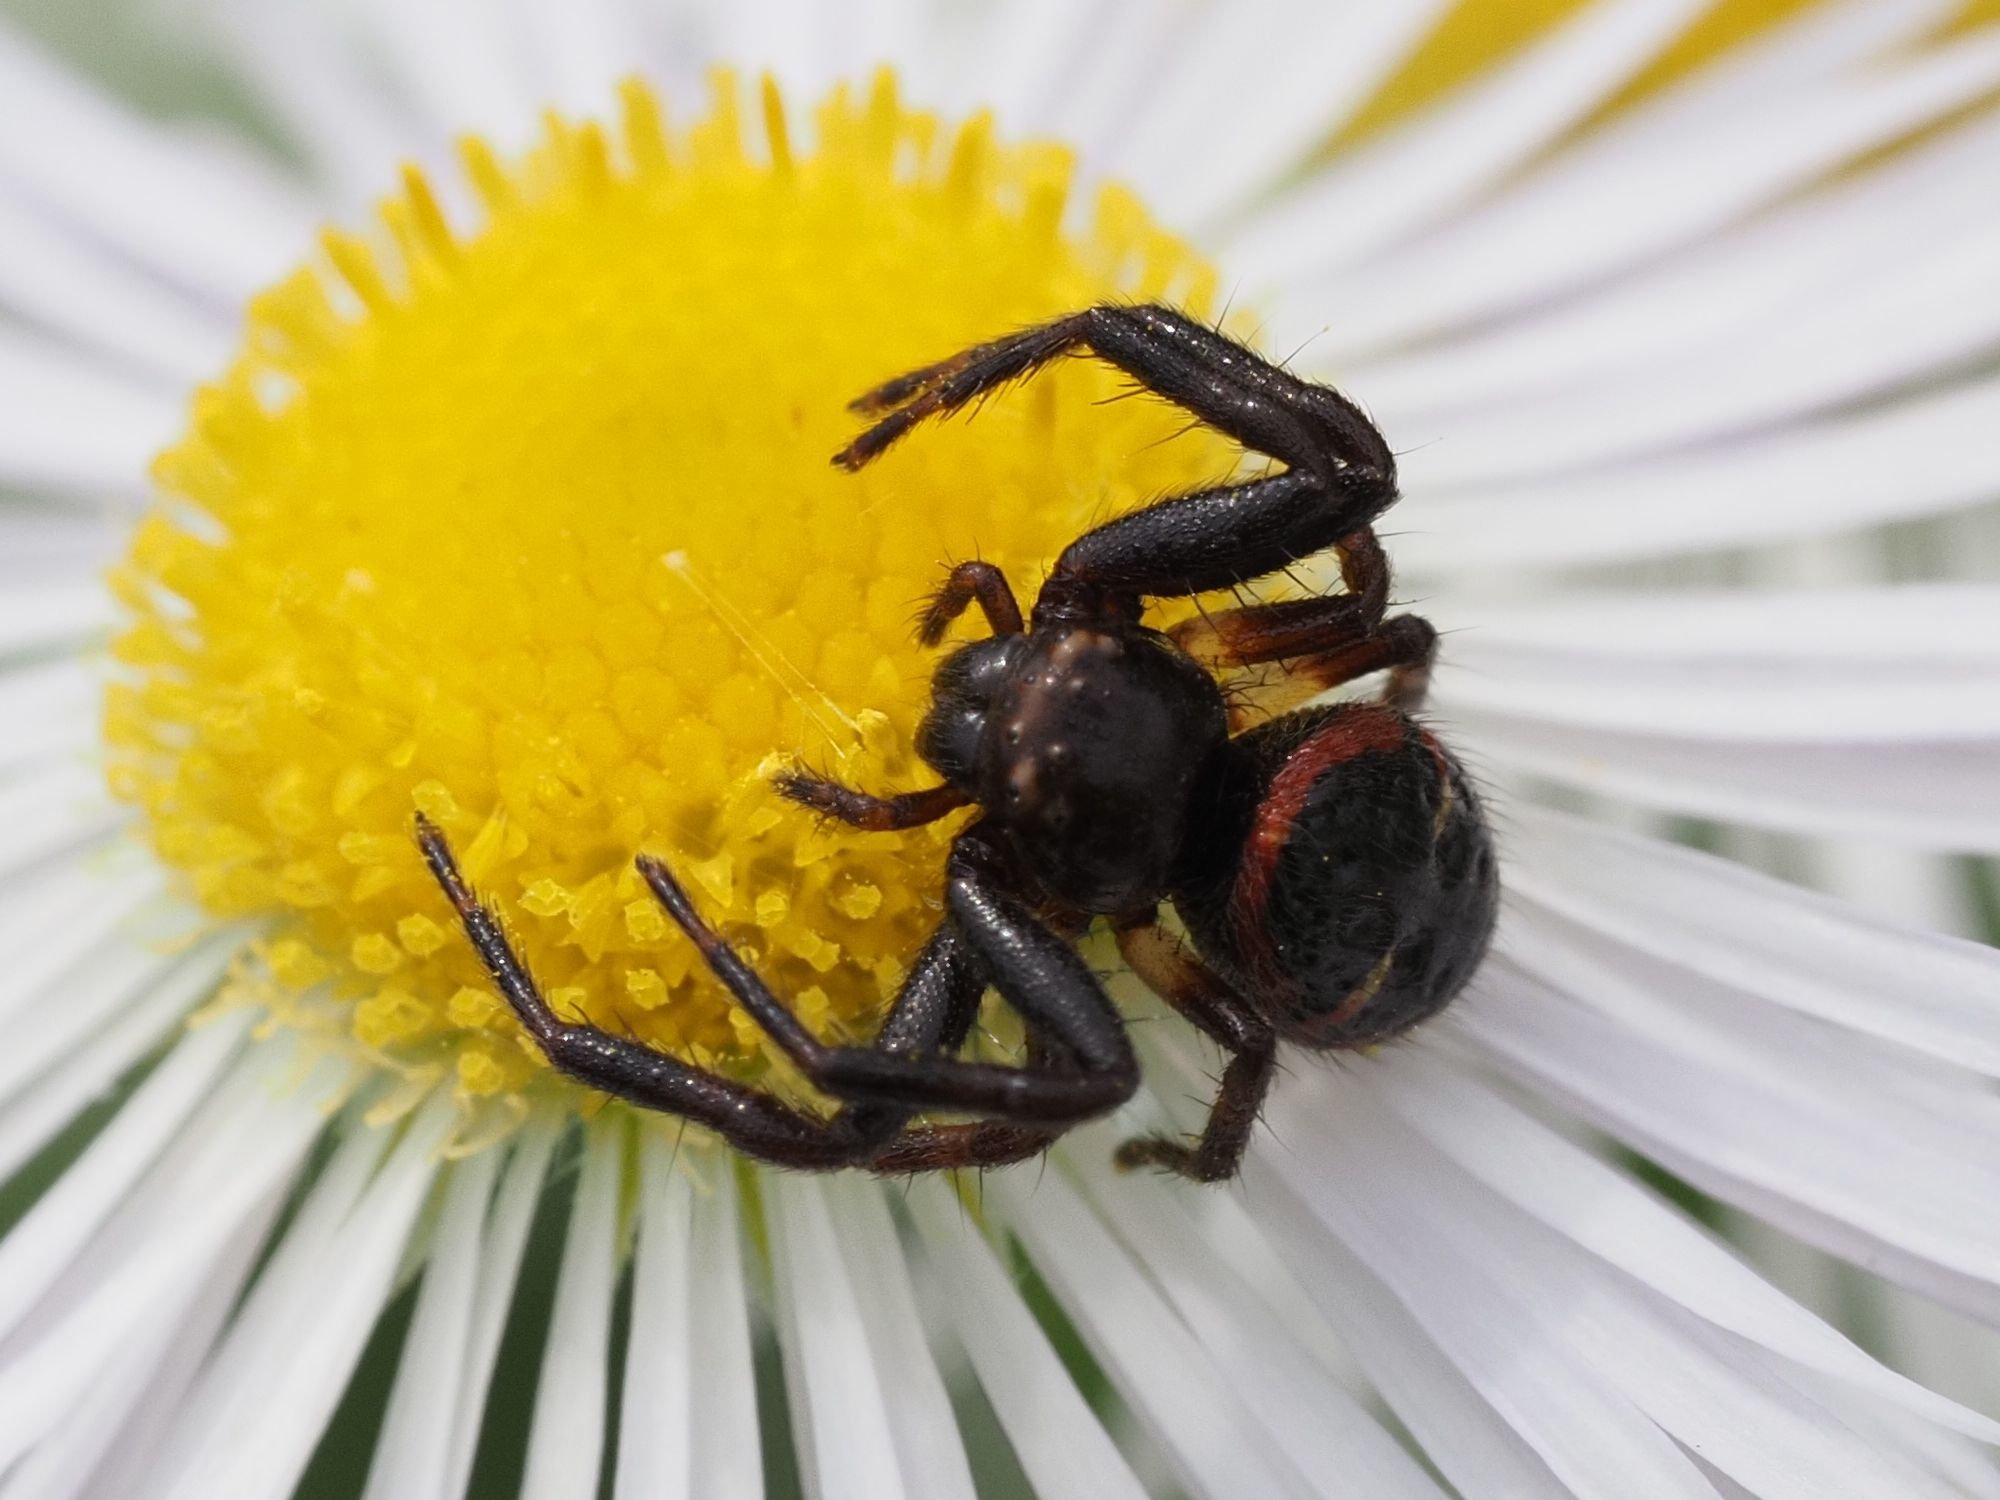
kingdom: Animalia
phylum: Arthropoda
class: Arachnida
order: Araneae
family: Thomisidae
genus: Synema
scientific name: Synema globosum
